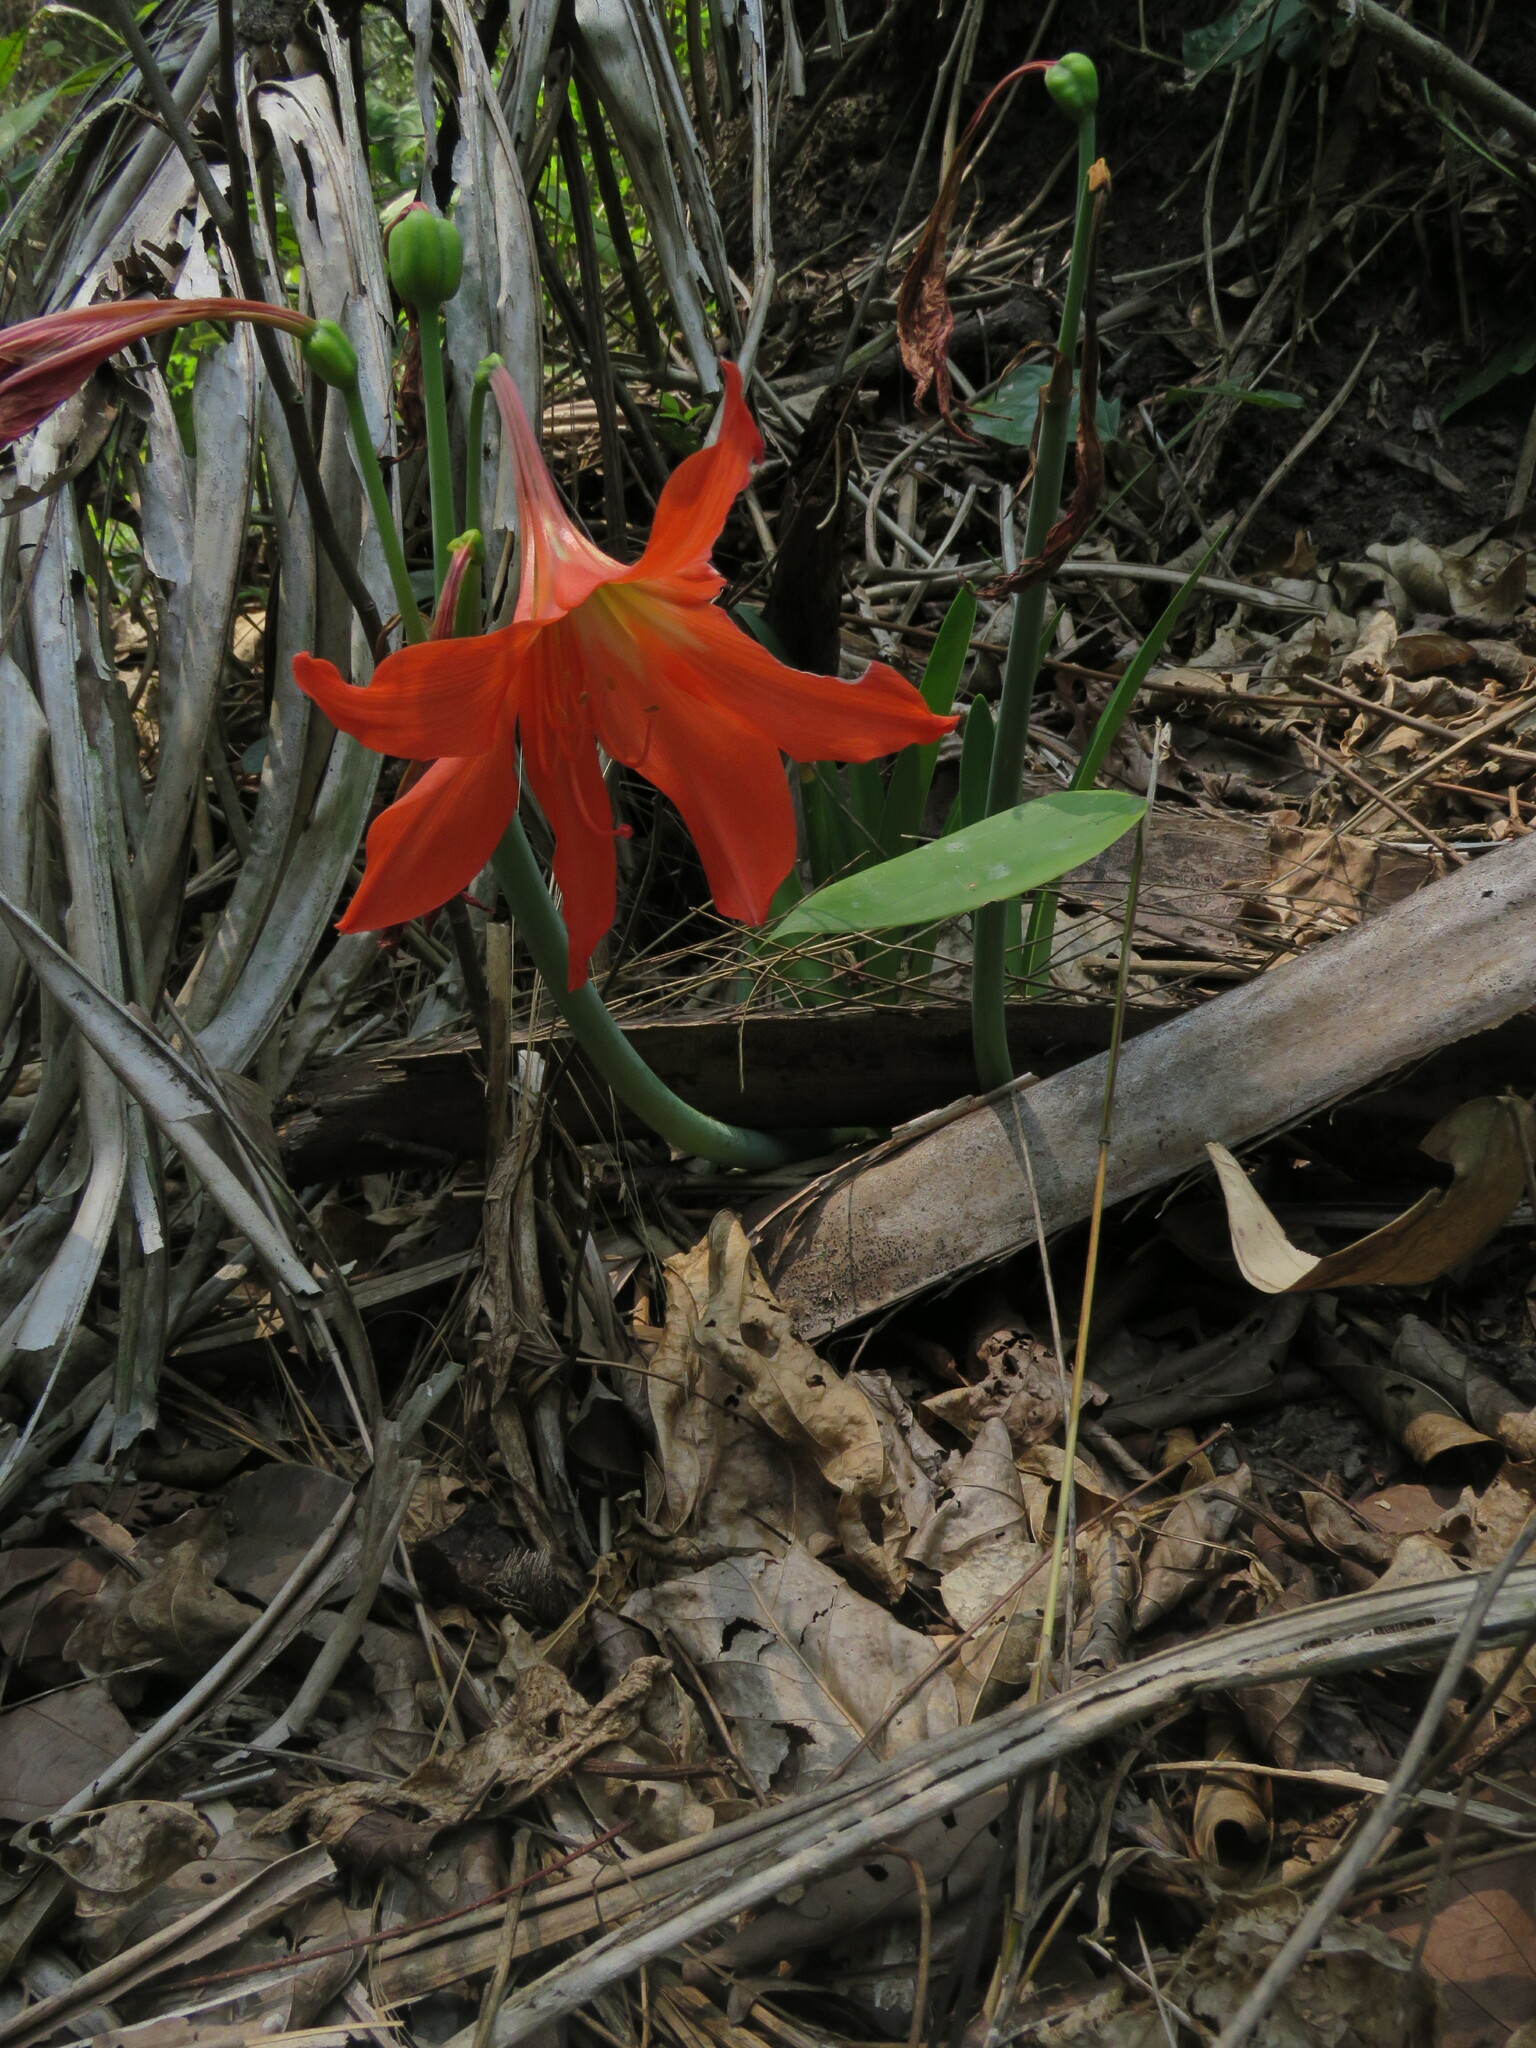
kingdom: Plantae
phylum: Tracheophyta
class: Liliopsida
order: Asparagales
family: Amaryllidaceae
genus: Hippeastrum
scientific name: Hippeastrum puniceum
